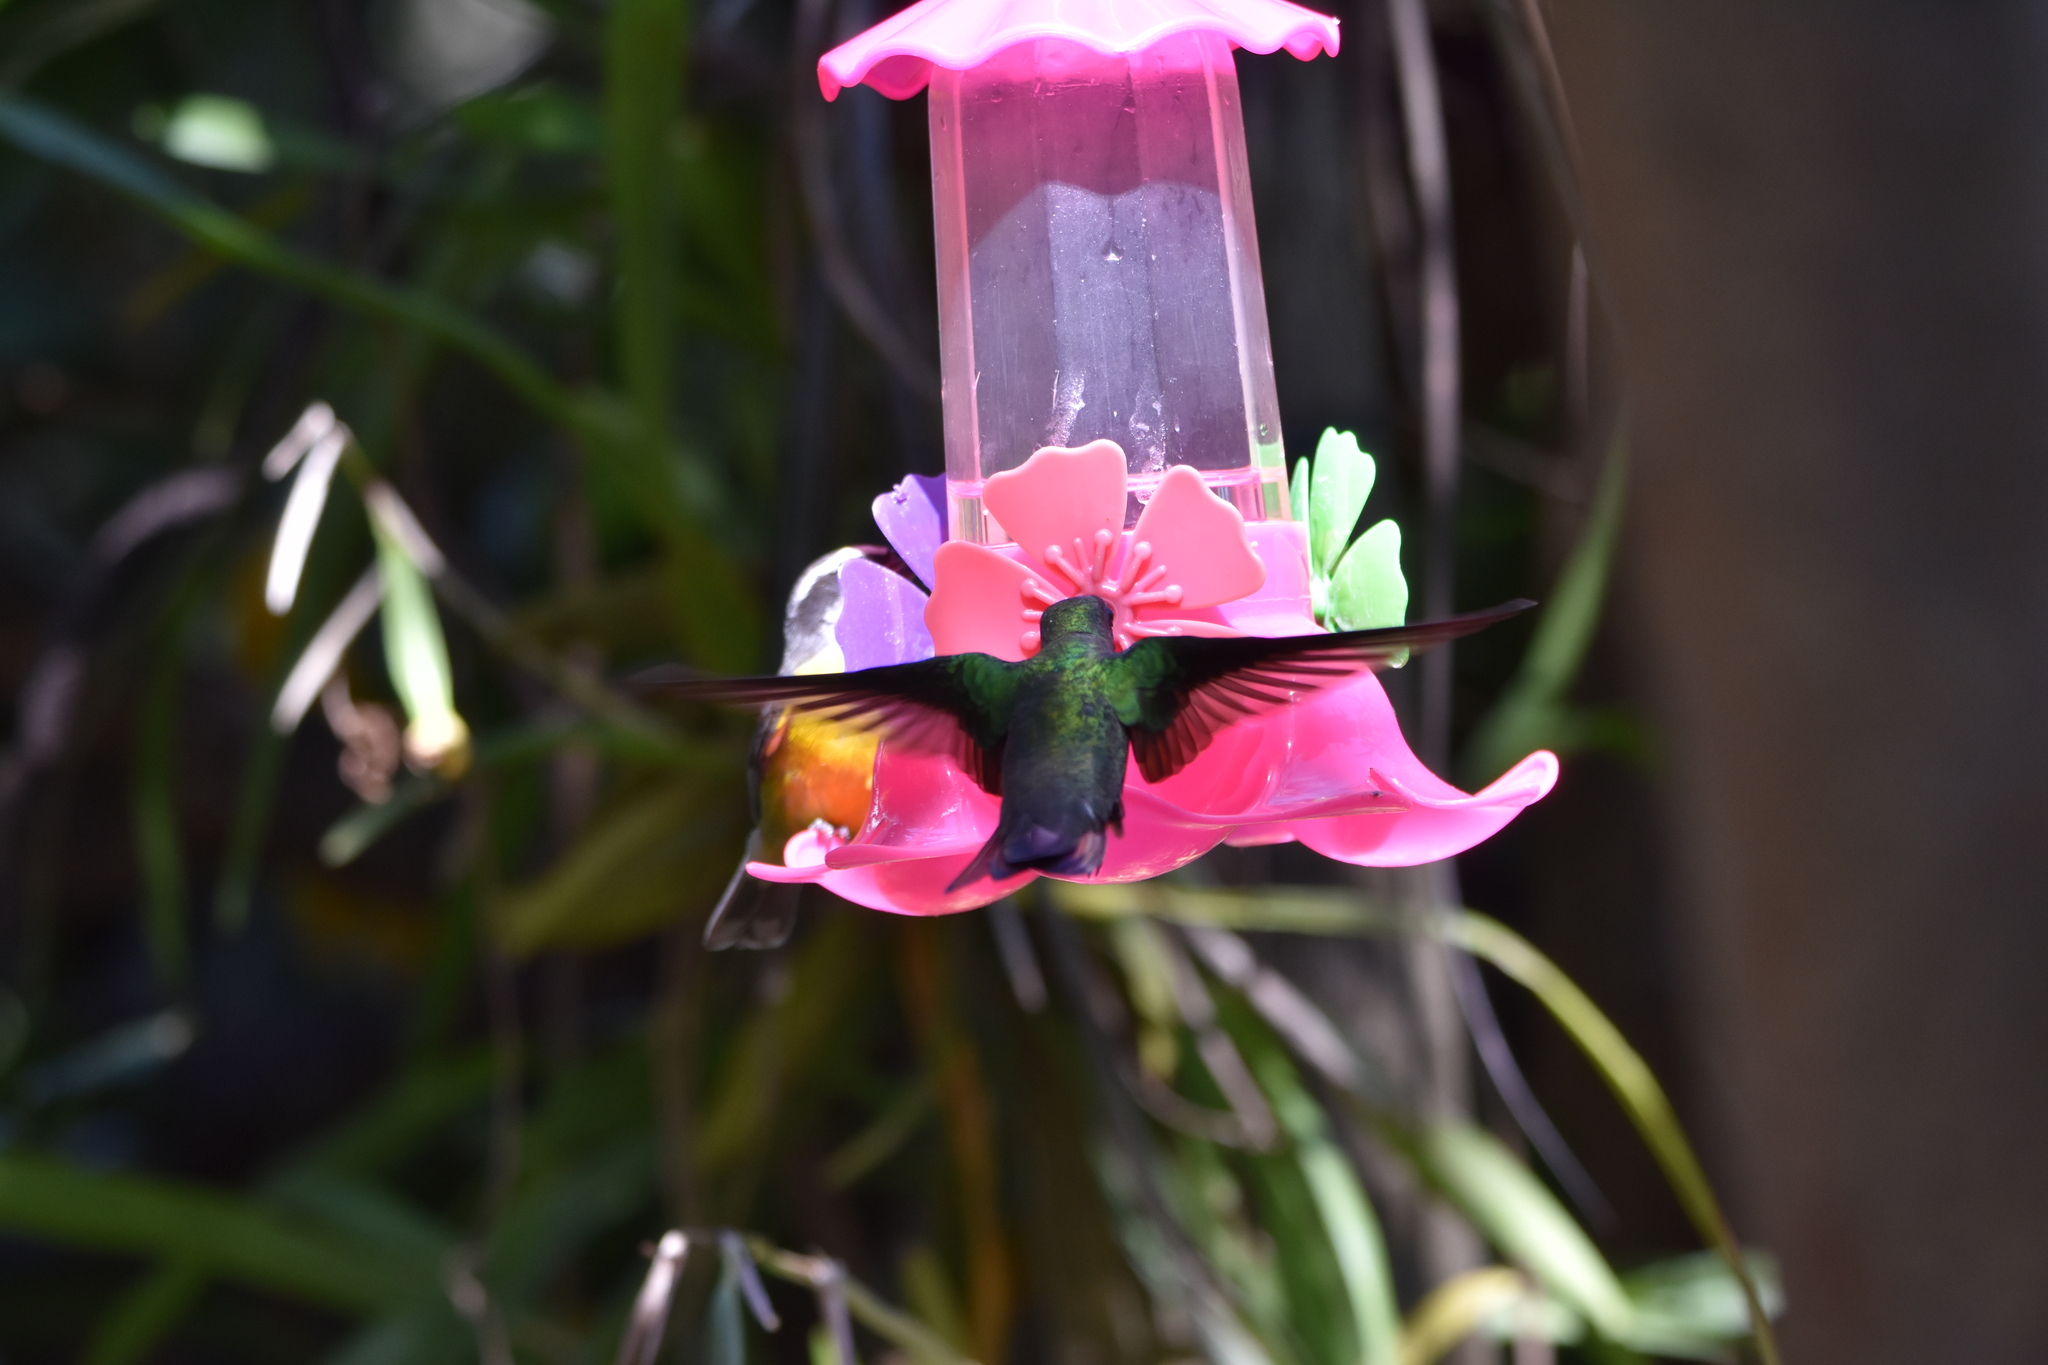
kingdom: Animalia
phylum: Chordata
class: Aves
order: Apodiformes
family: Trochilidae
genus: Anthracothorax
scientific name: Anthracothorax nigricollis
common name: Black-throated mango
